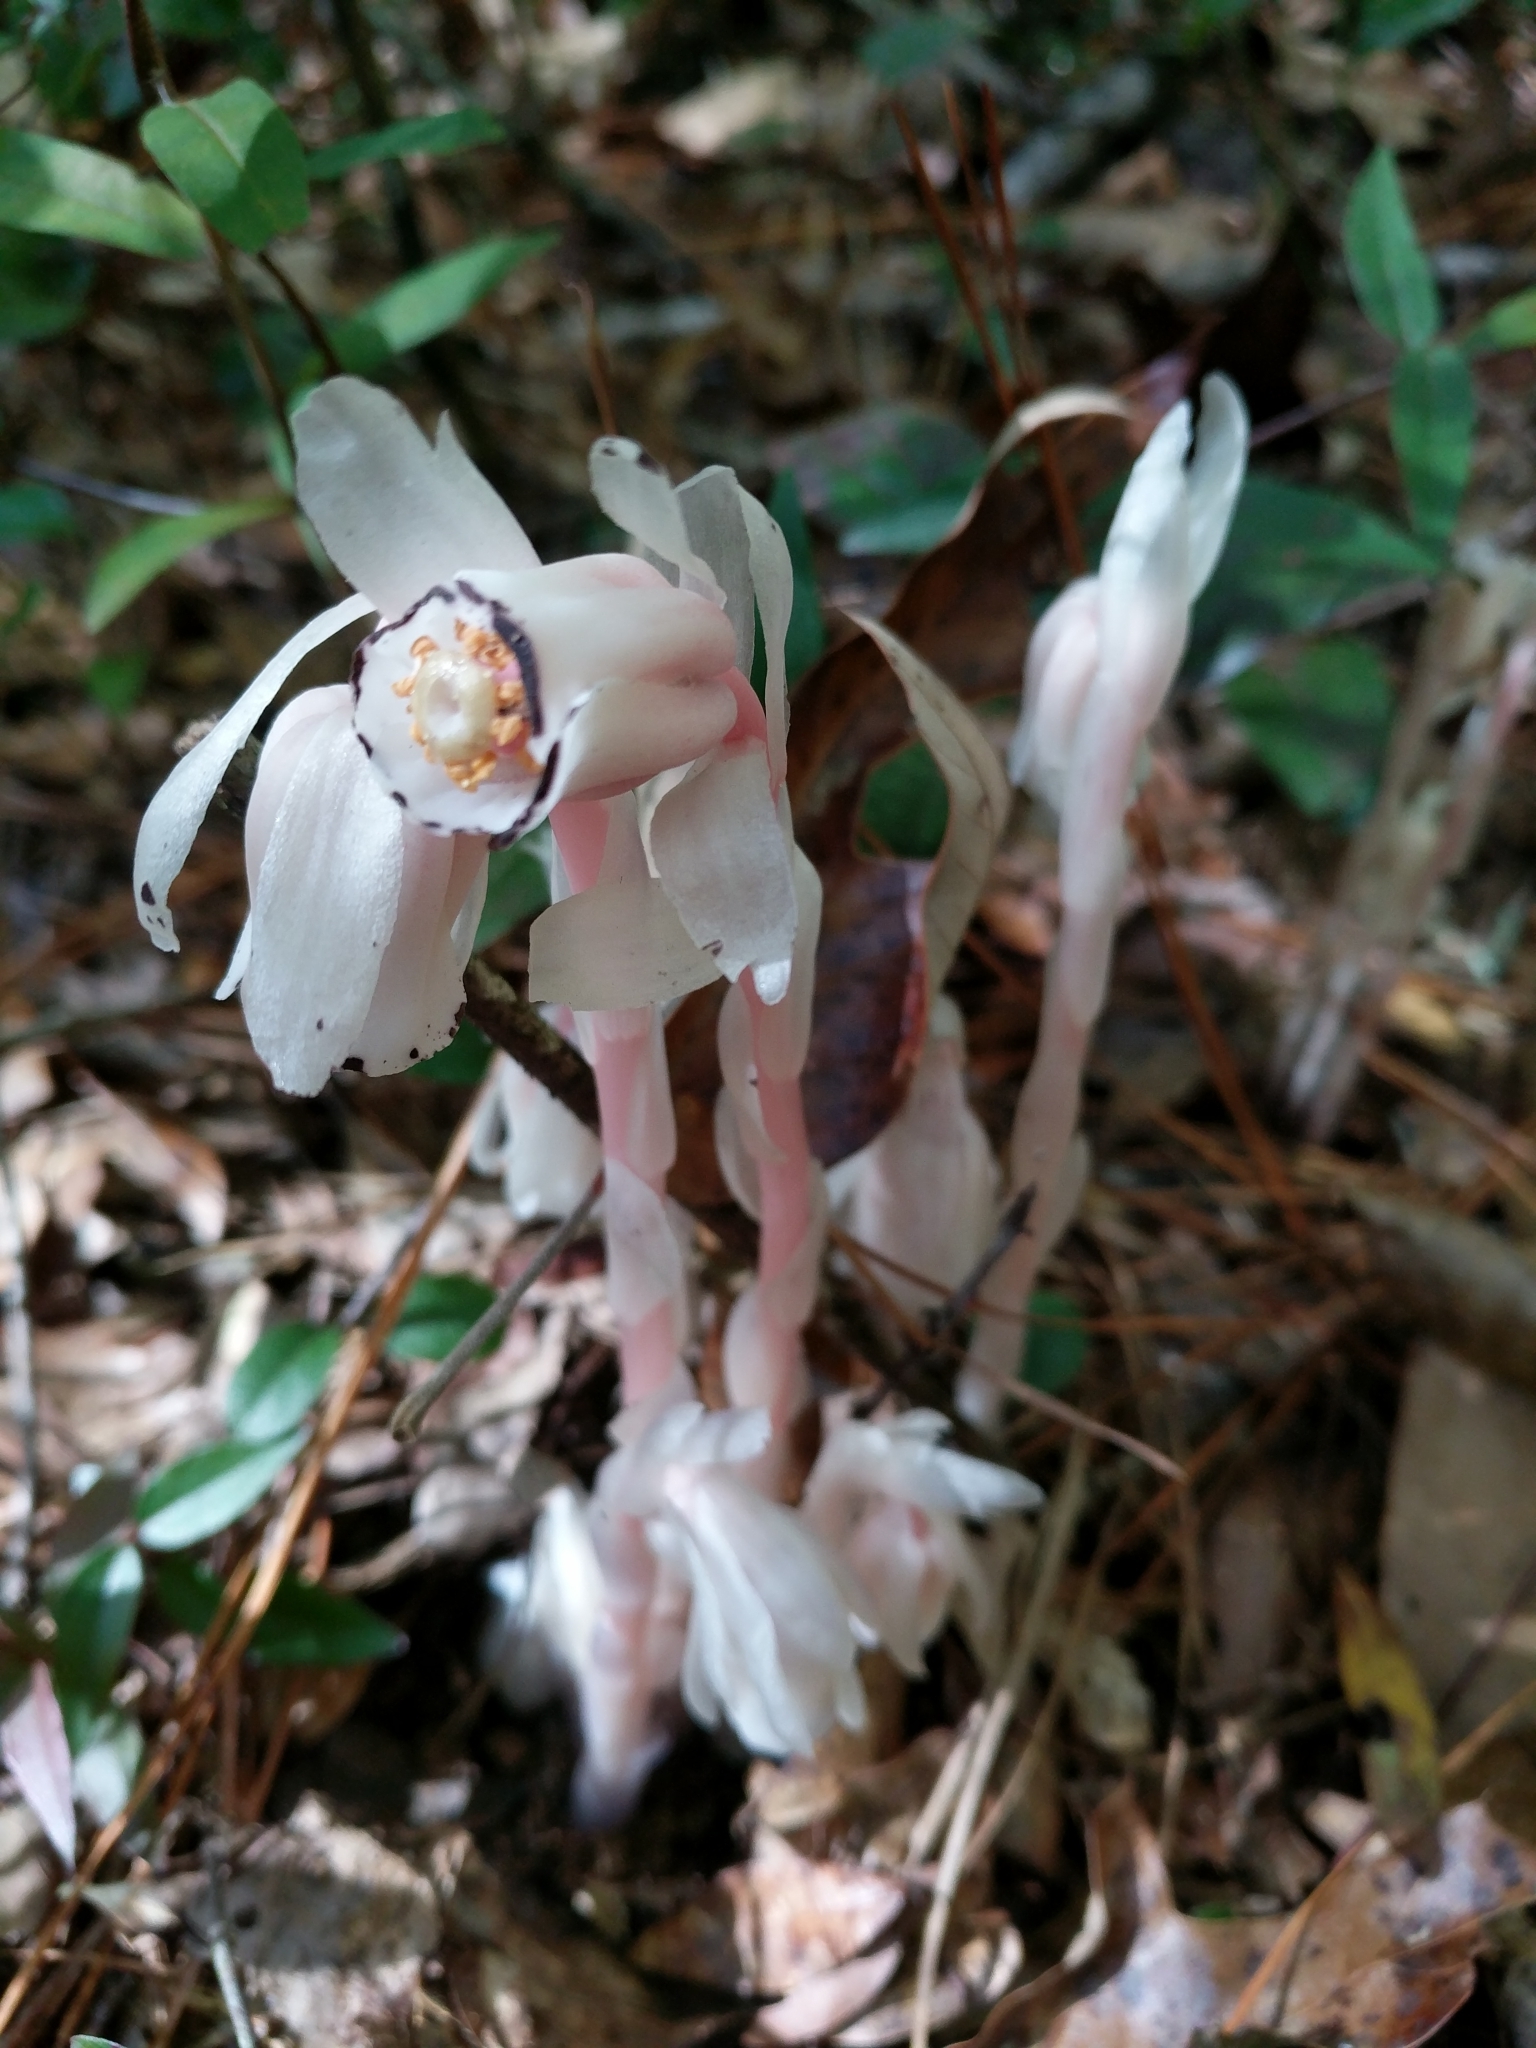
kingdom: Plantae
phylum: Tracheophyta
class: Magnoliopsida
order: Ericales
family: Ericaceae
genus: Monotropa
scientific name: Monotropa uniflora
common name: Convulsion root
